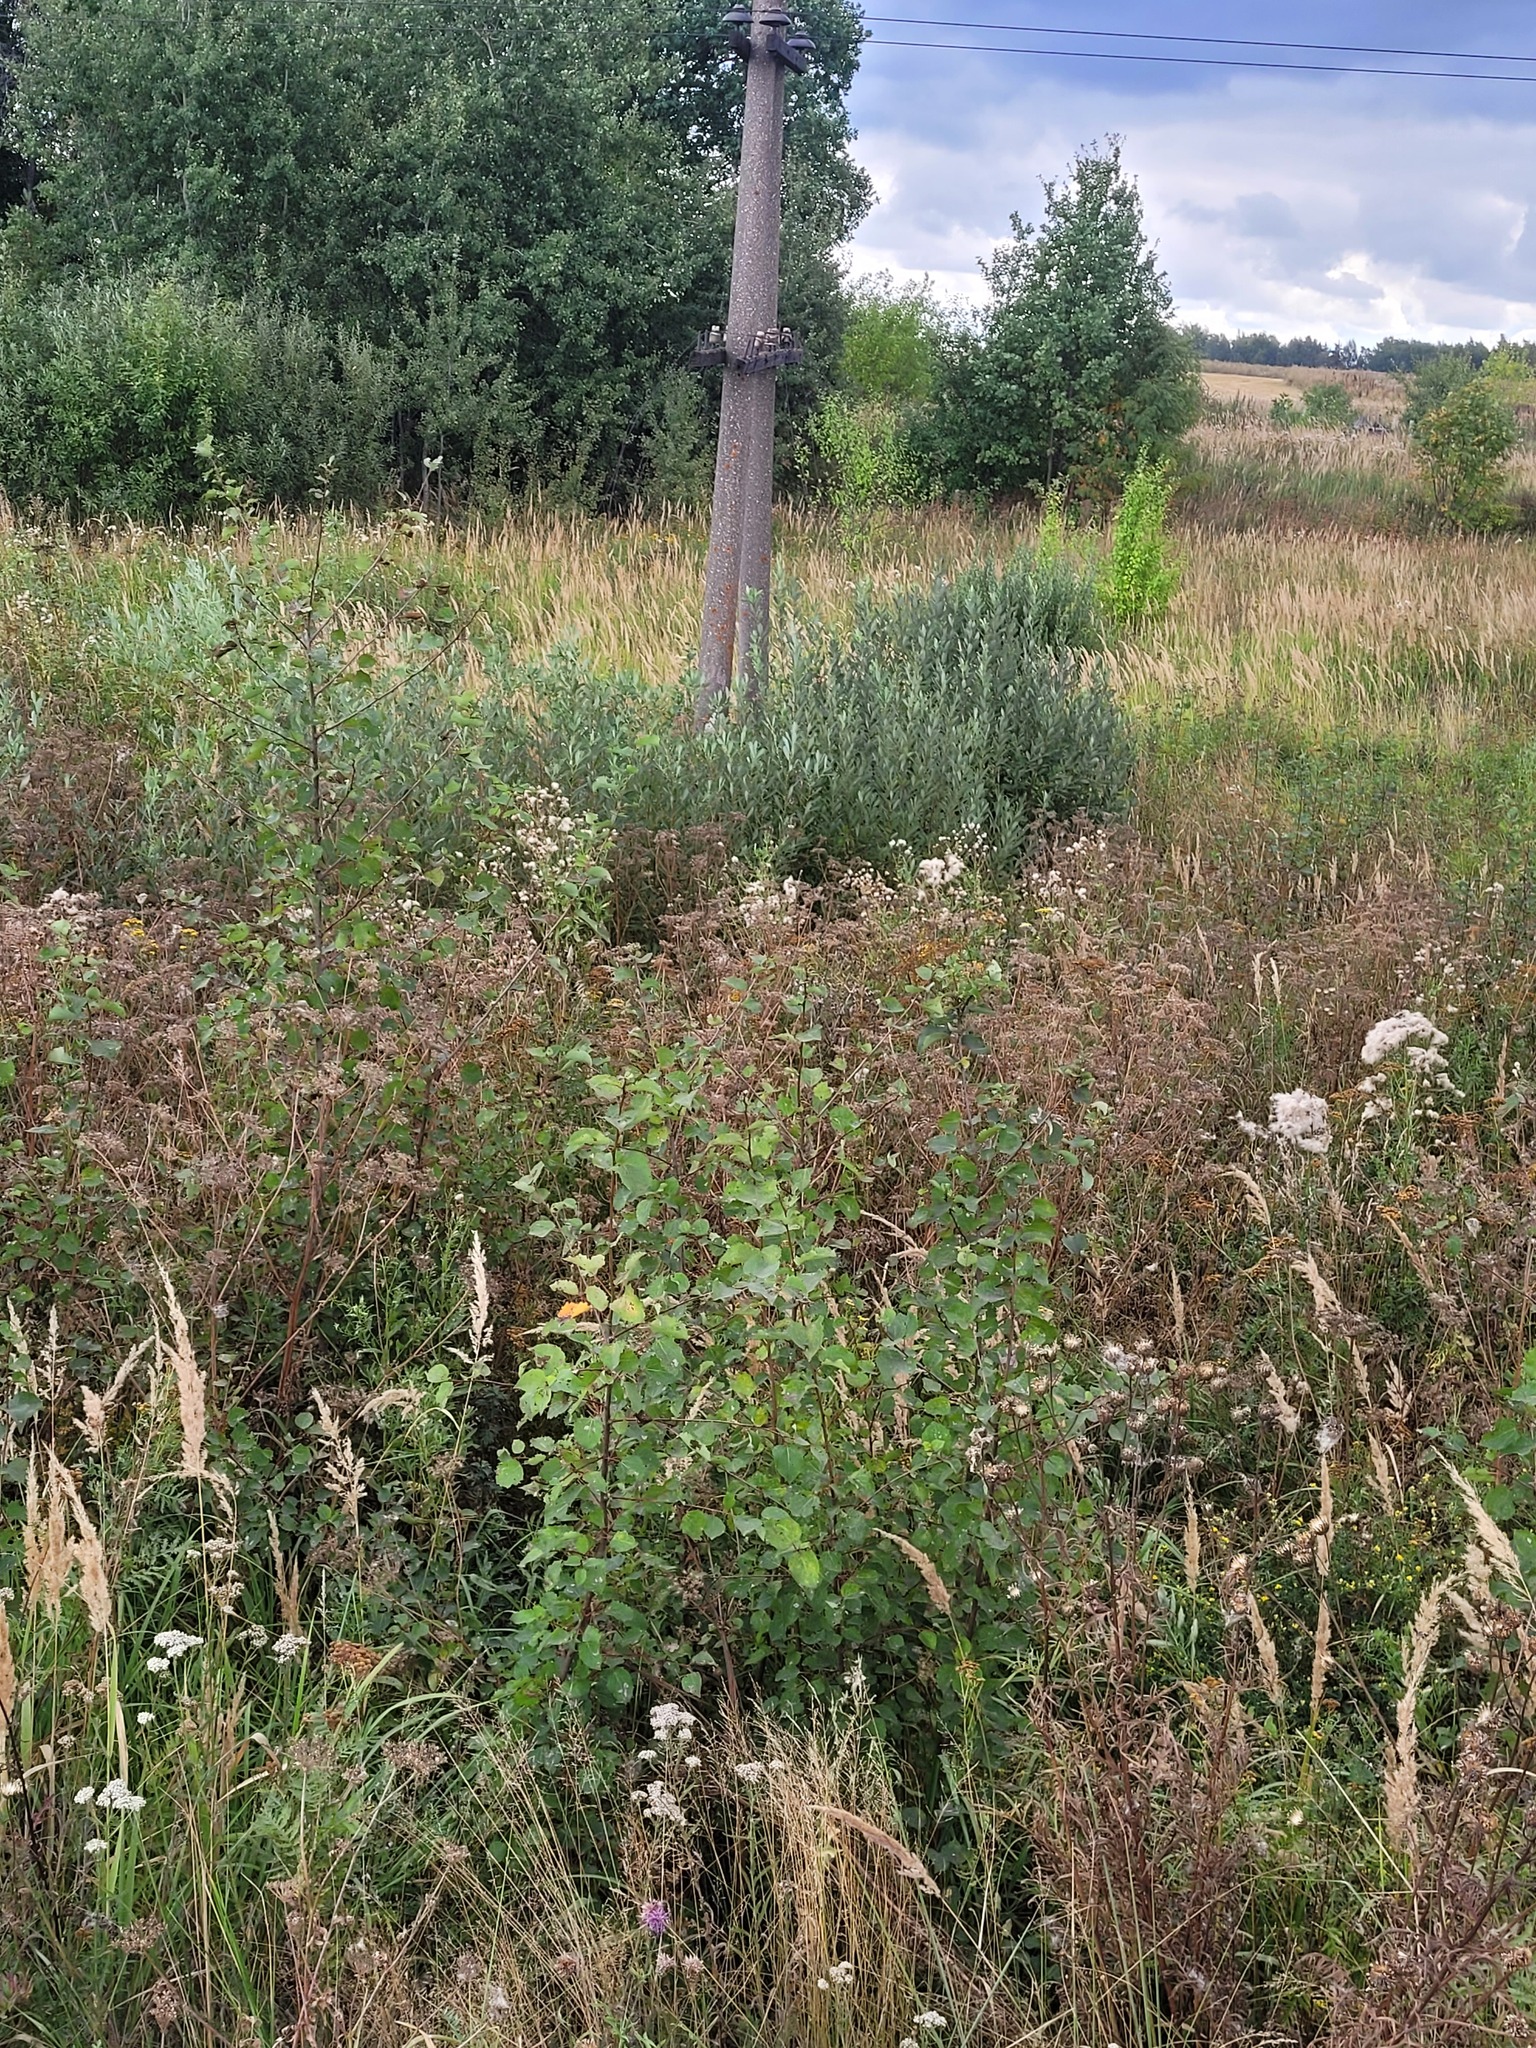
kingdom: Plantae
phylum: Tracheophyta
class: Magnoliopsida
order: Malpighiales
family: Salicaceae
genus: Populus
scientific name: Populus tremula
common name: European aspen
